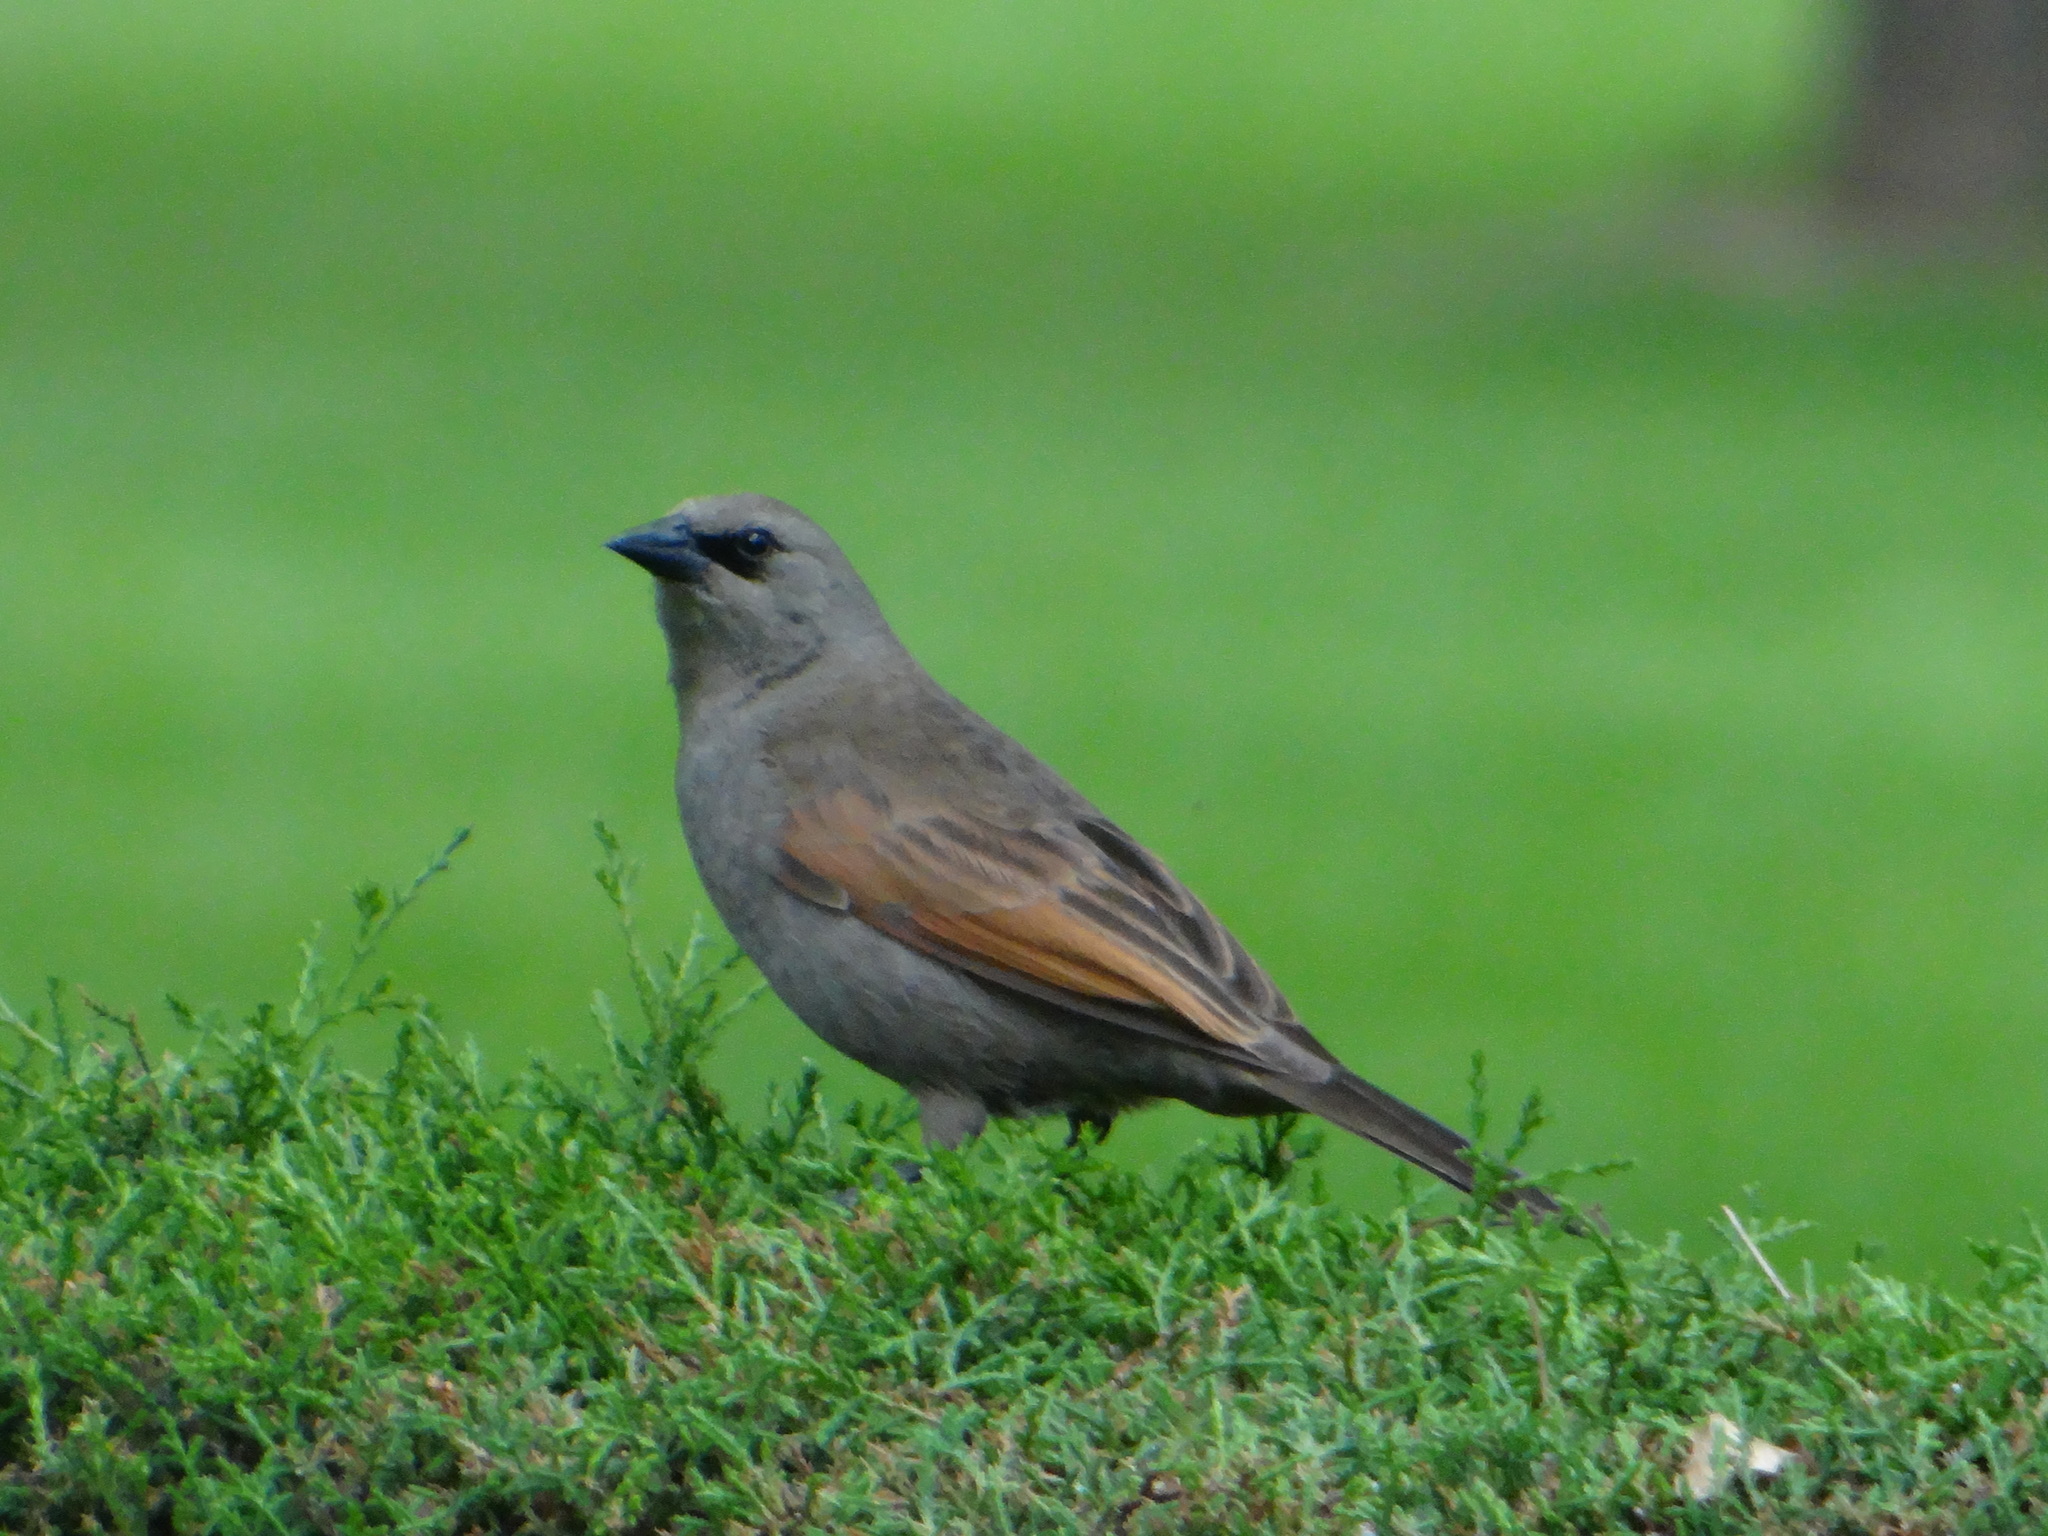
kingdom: Animalia
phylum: Chordata
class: Aves
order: Passeriformes
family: Icteridae
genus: Agelaioides
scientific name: Agelaioides badius
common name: Baywing
